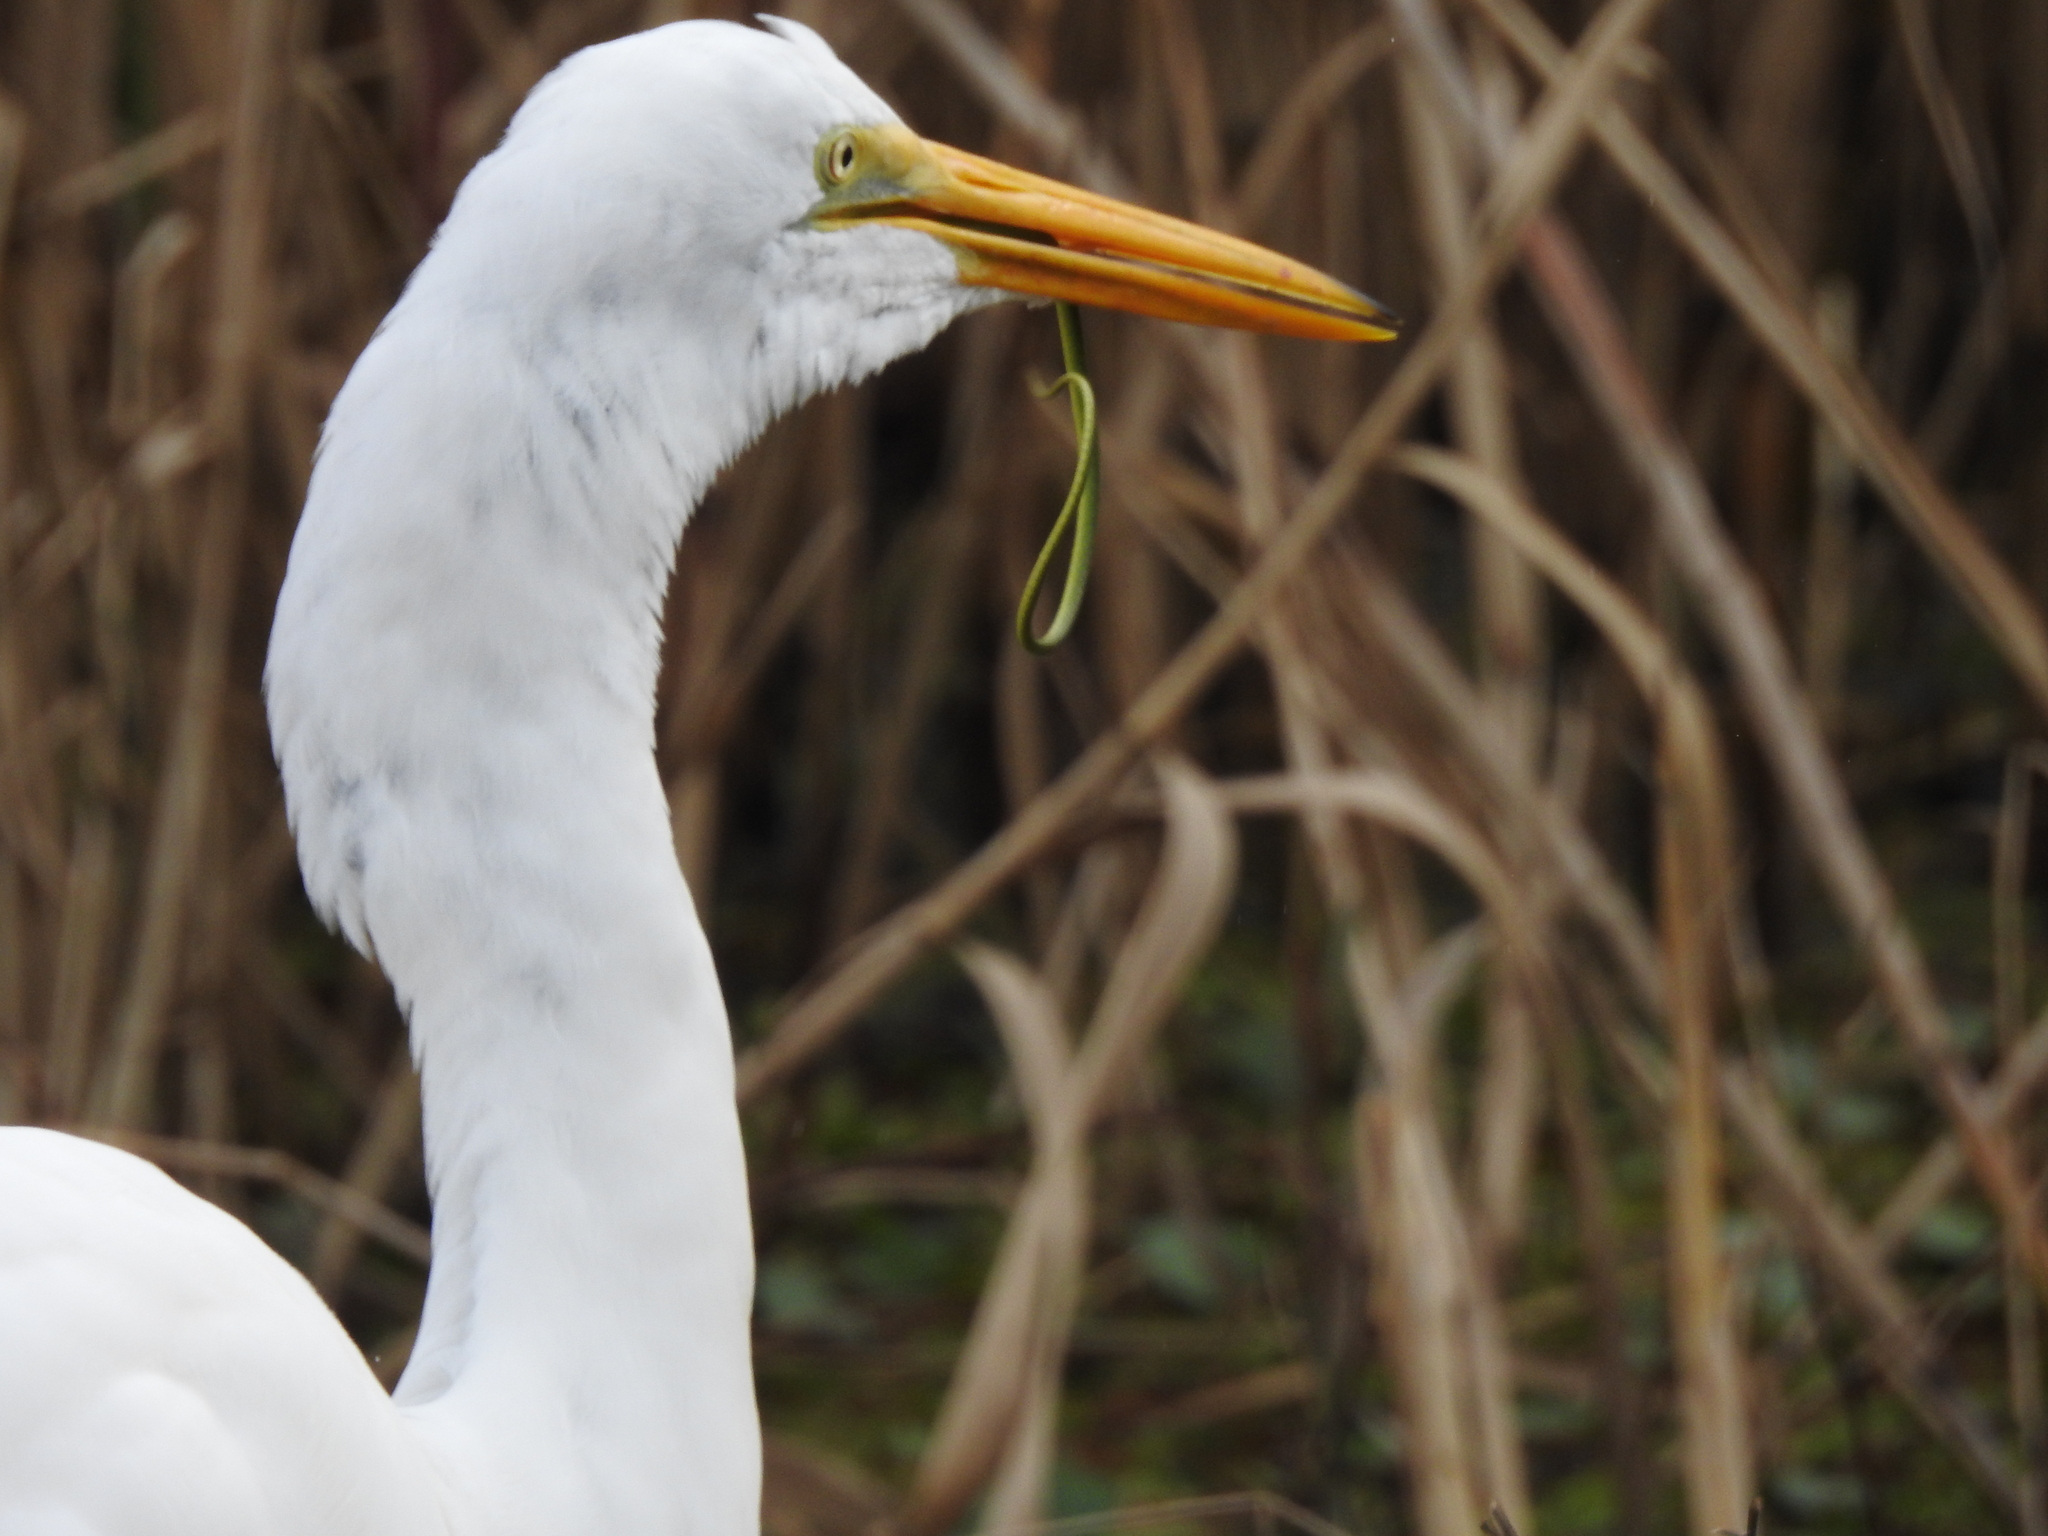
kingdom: Animalia
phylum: Chordata
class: Squamata
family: Colubridae
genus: Opheodrys
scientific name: Opheodrys aestivus
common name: Rough greensnake
